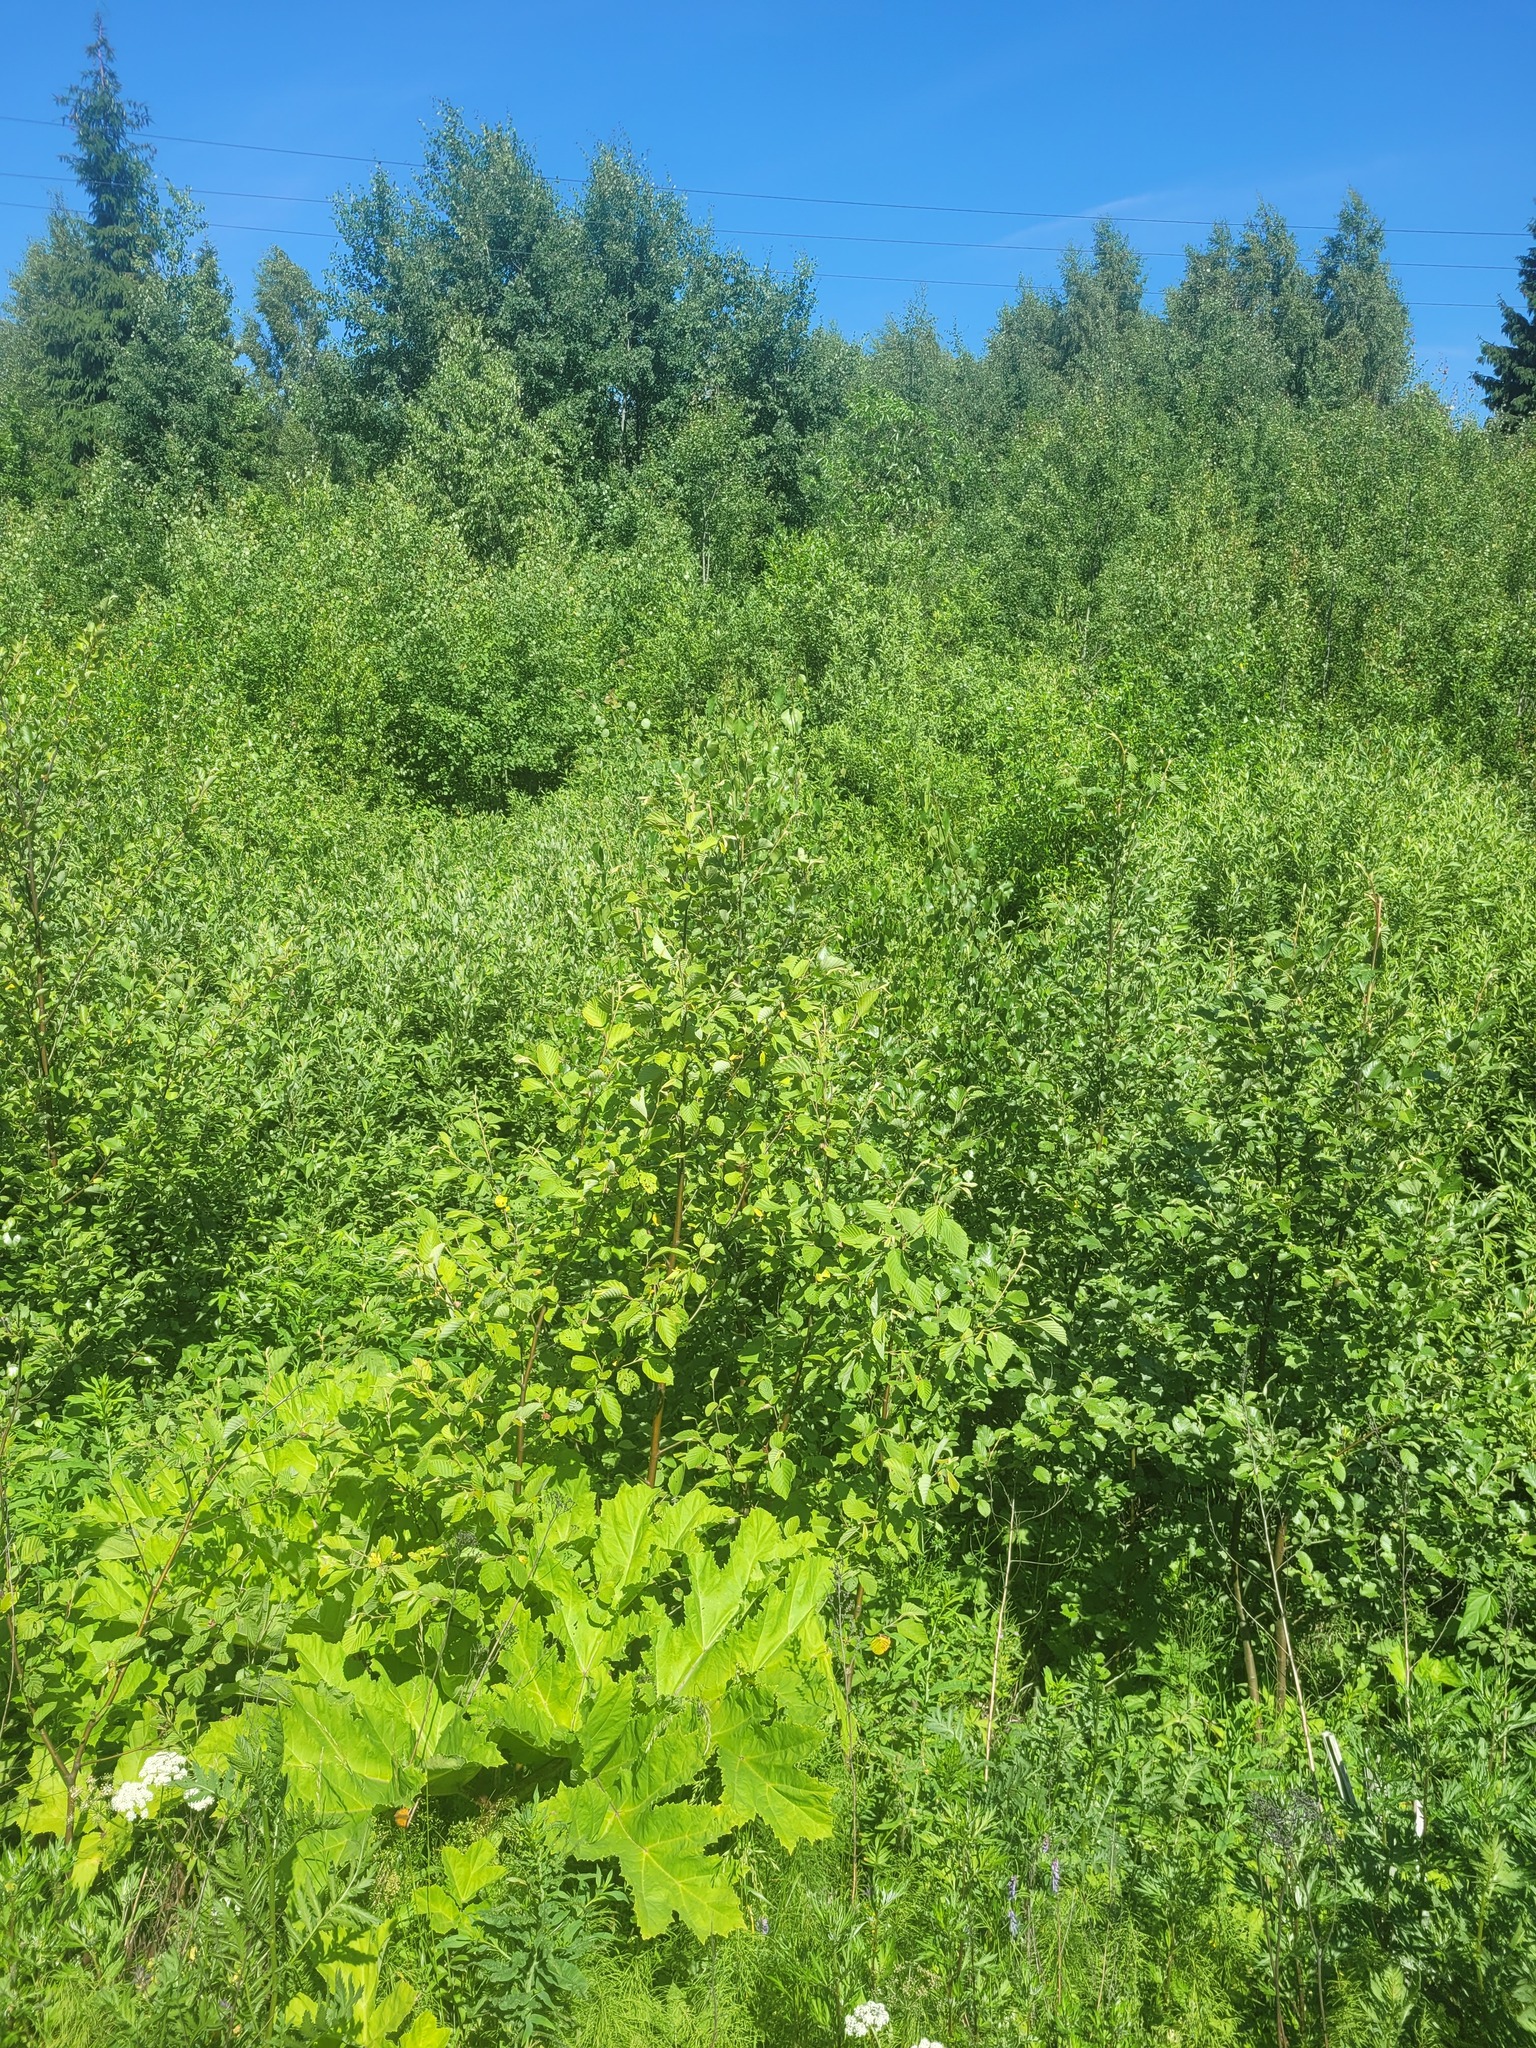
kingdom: Plantae
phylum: Tracheophyta
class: Magnoliopsida
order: Fagales
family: Betulaceae
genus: Alnus
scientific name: Alnus incana
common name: Grey alder
